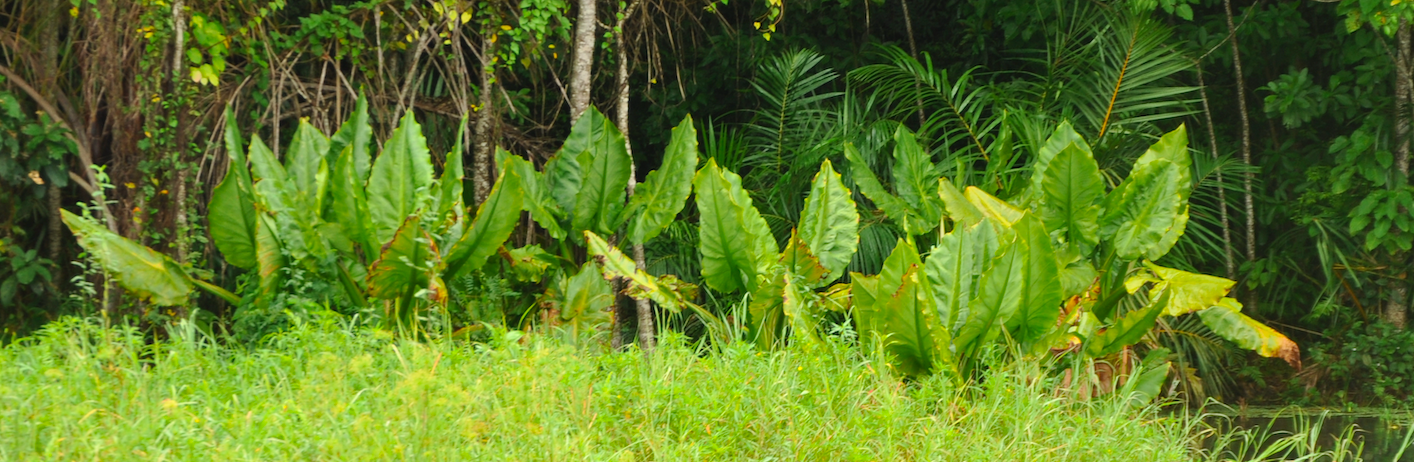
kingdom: Plantae
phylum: Tracheophyta
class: Liliopsida
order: Alismatales
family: Araceae
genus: Typhonodorum
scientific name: Typhonodorum lindleyanum
